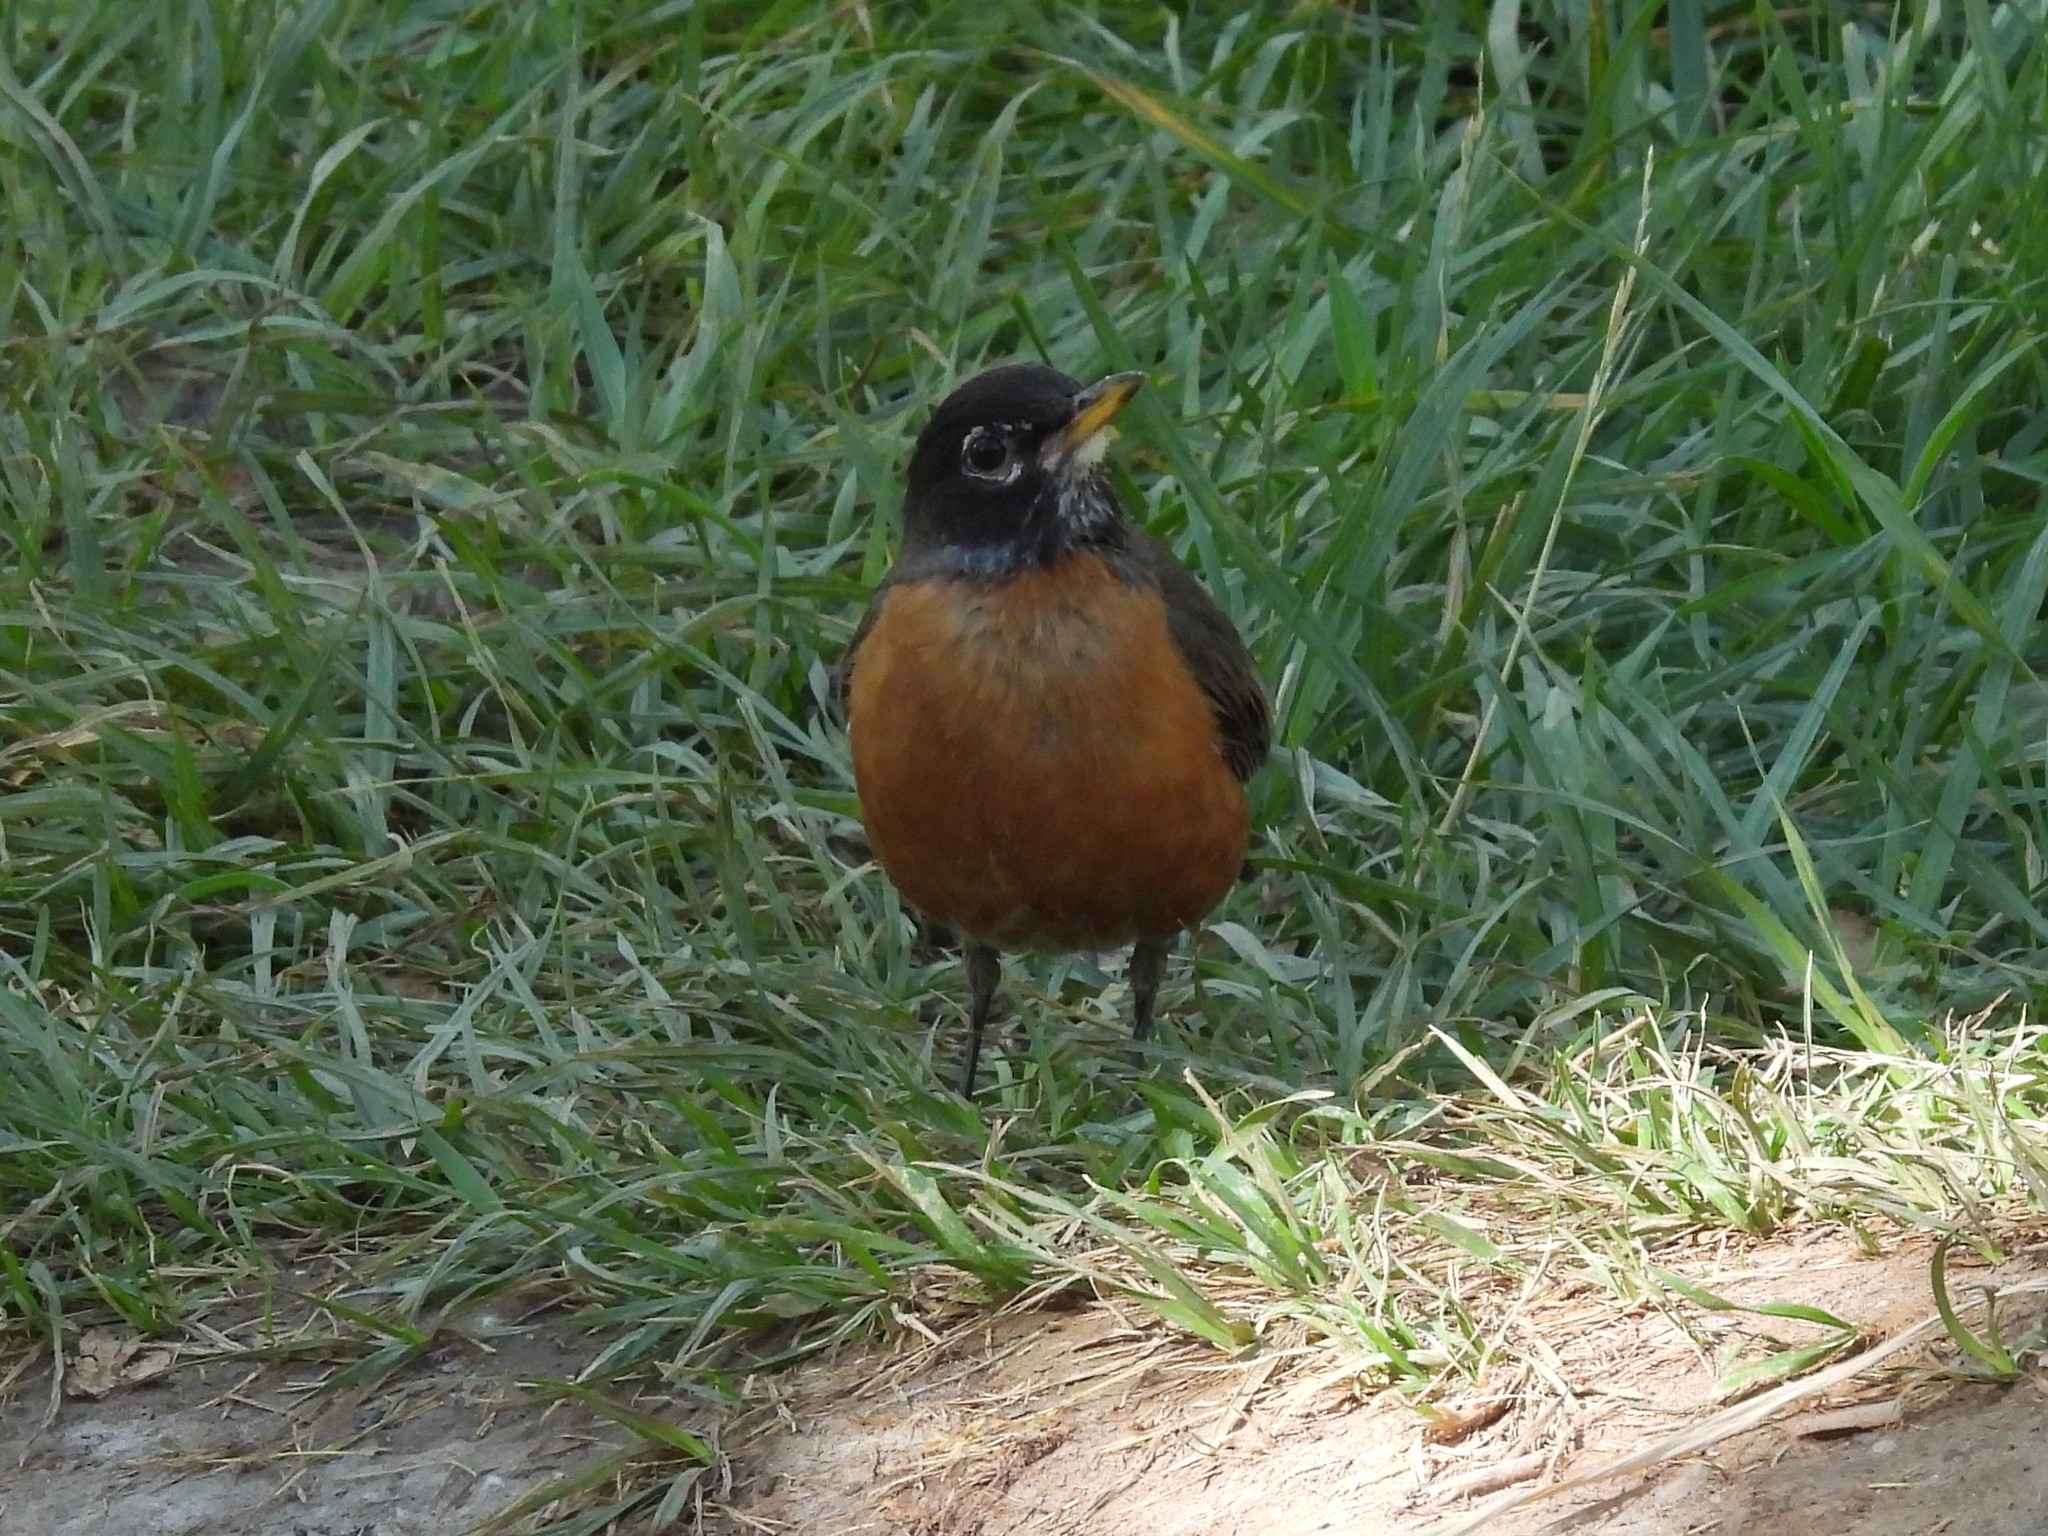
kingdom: Animalia
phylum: Chordata
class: Aves
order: Passeriformes
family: Turdidae
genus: Turdus
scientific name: Turdus migratorius
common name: American robin
